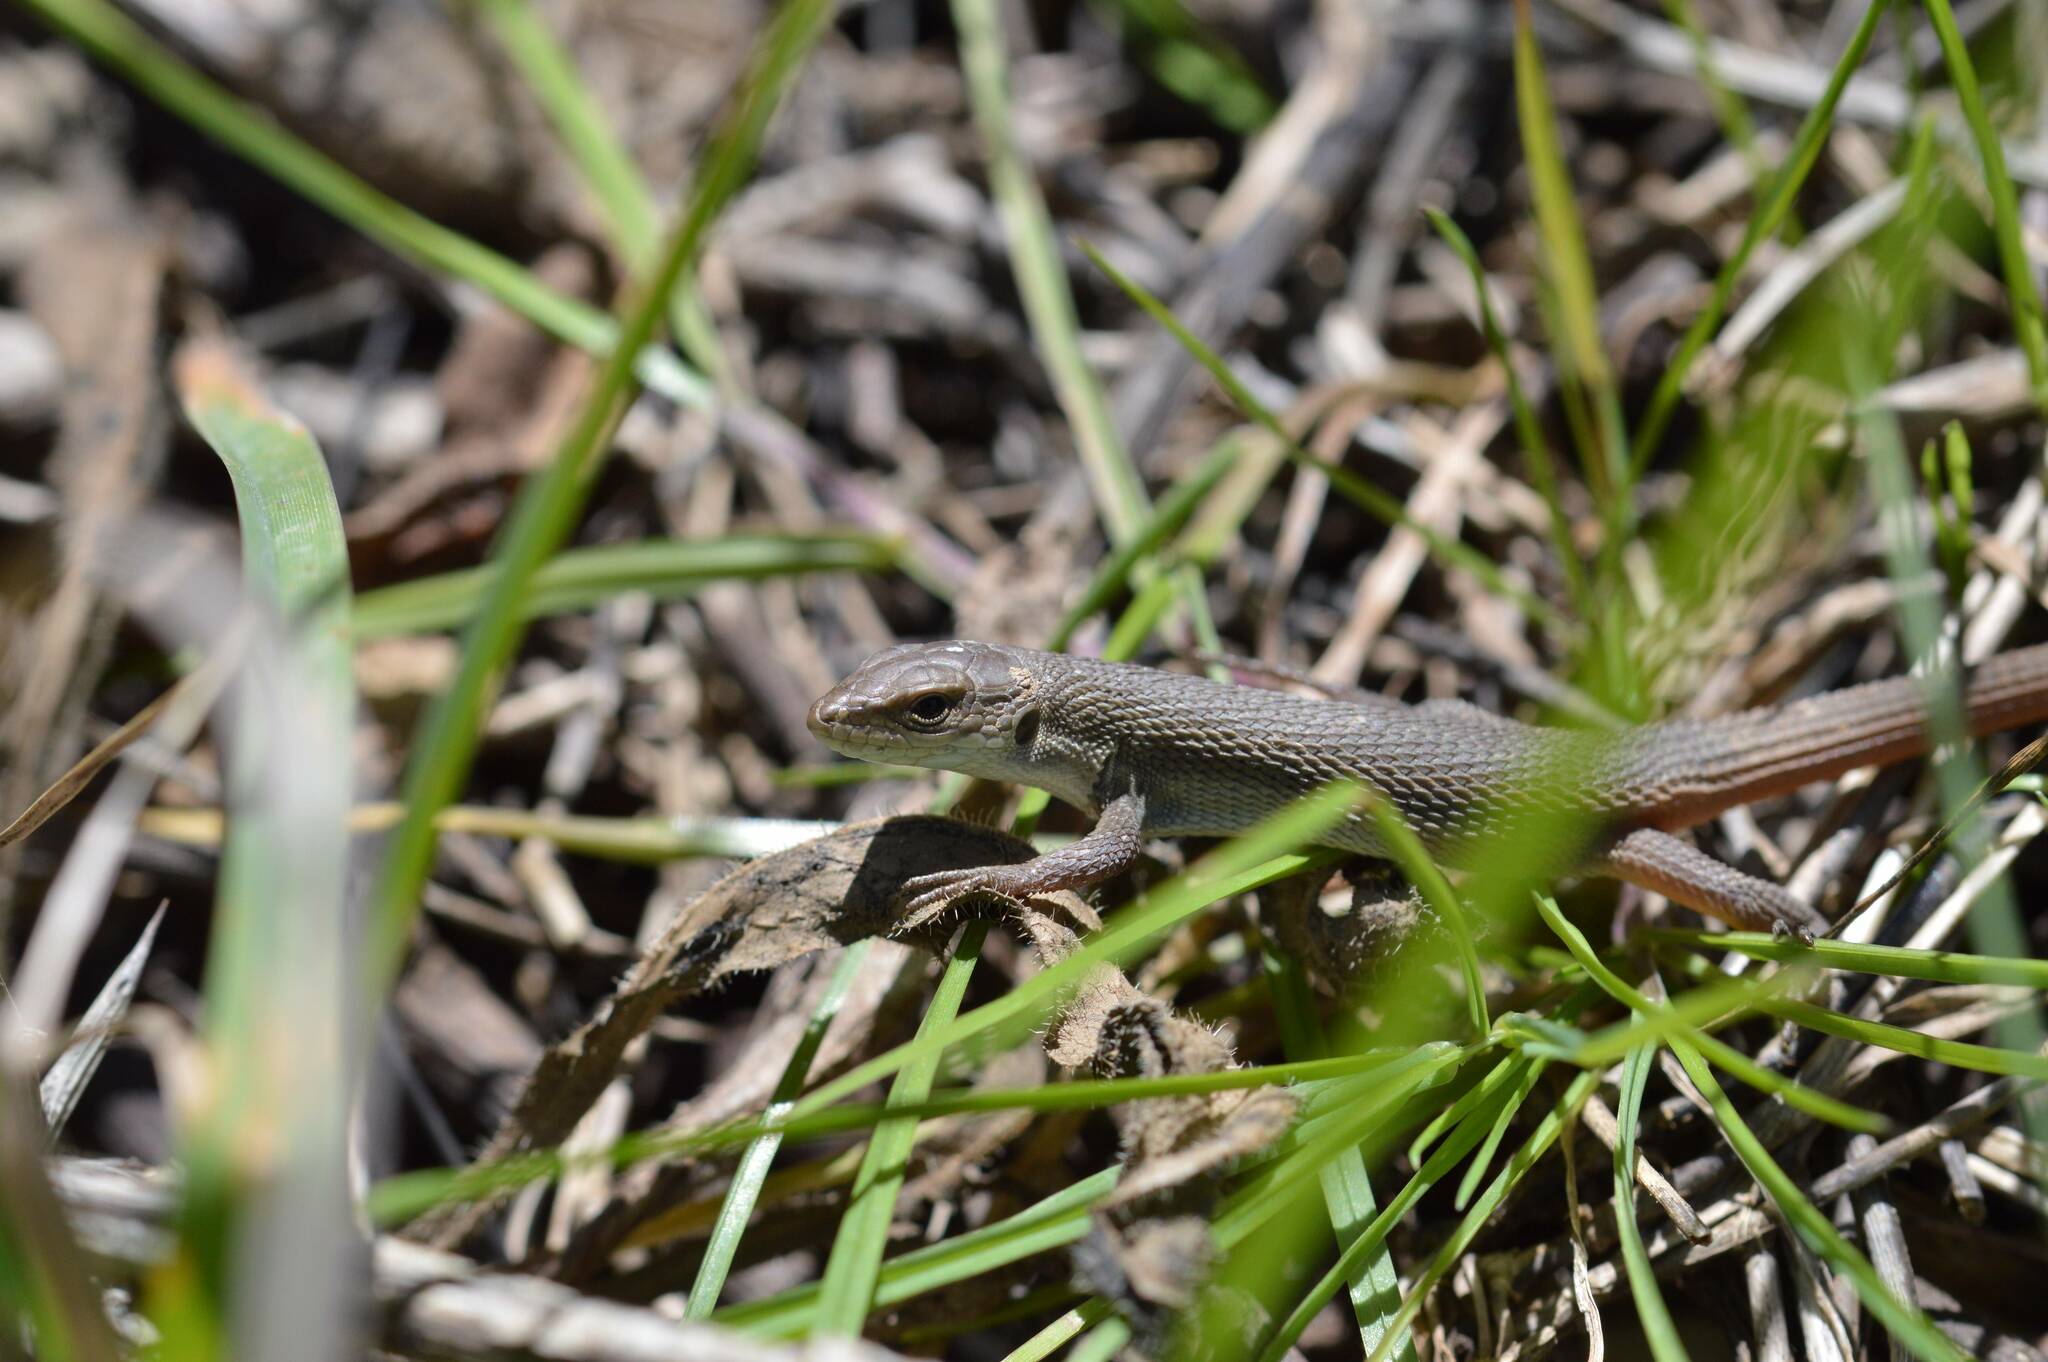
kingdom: Animalia
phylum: Chordata
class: Squamata
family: Lacertidae
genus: Psammodromus
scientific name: Psammodromus algirus
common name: Algerian psammodromus
